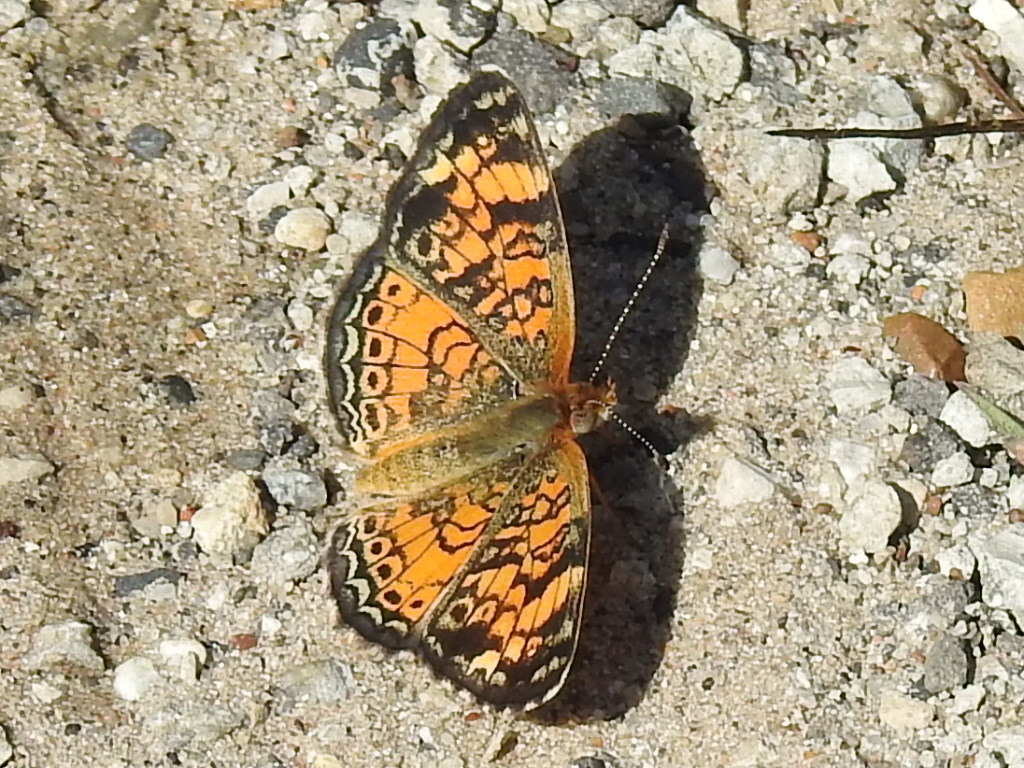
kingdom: Animalia
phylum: Arthropoda
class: Insecta
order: Lepidoptera
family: Nymphalidae
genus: Phyciodes
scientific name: Phyciodes tharos
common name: Pearl crescent
